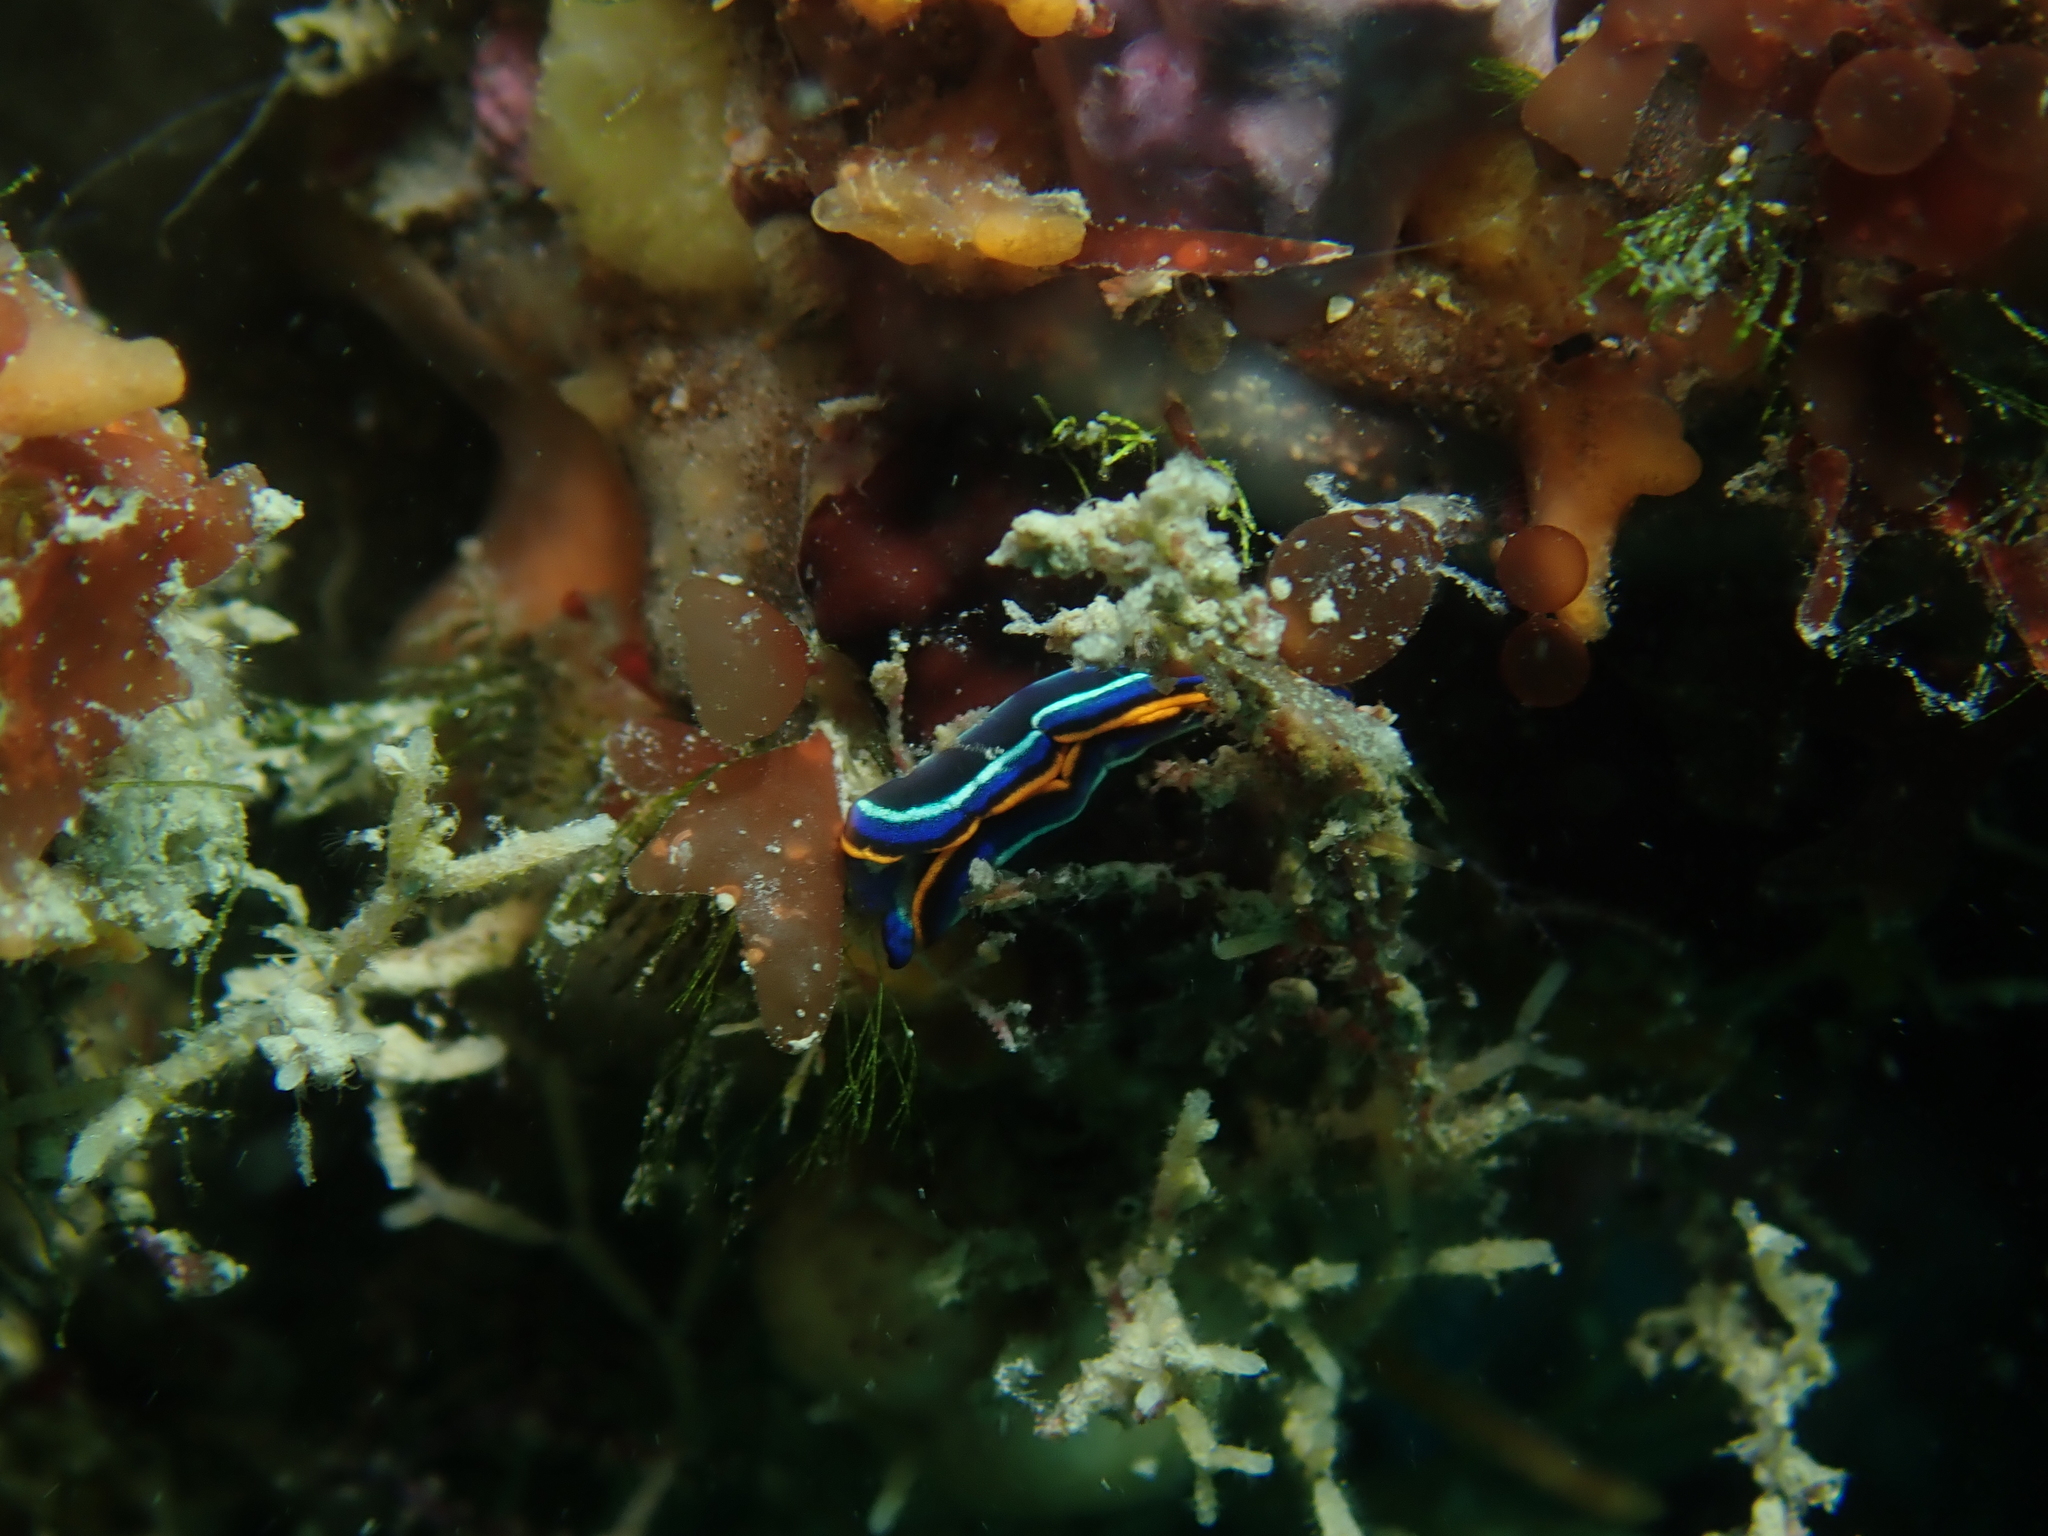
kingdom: Animalia
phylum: Mollusca
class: Gastropoda
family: Plakobranchidae
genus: Thuridilla
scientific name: Thuridilla hopei
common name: Splendid elysia
